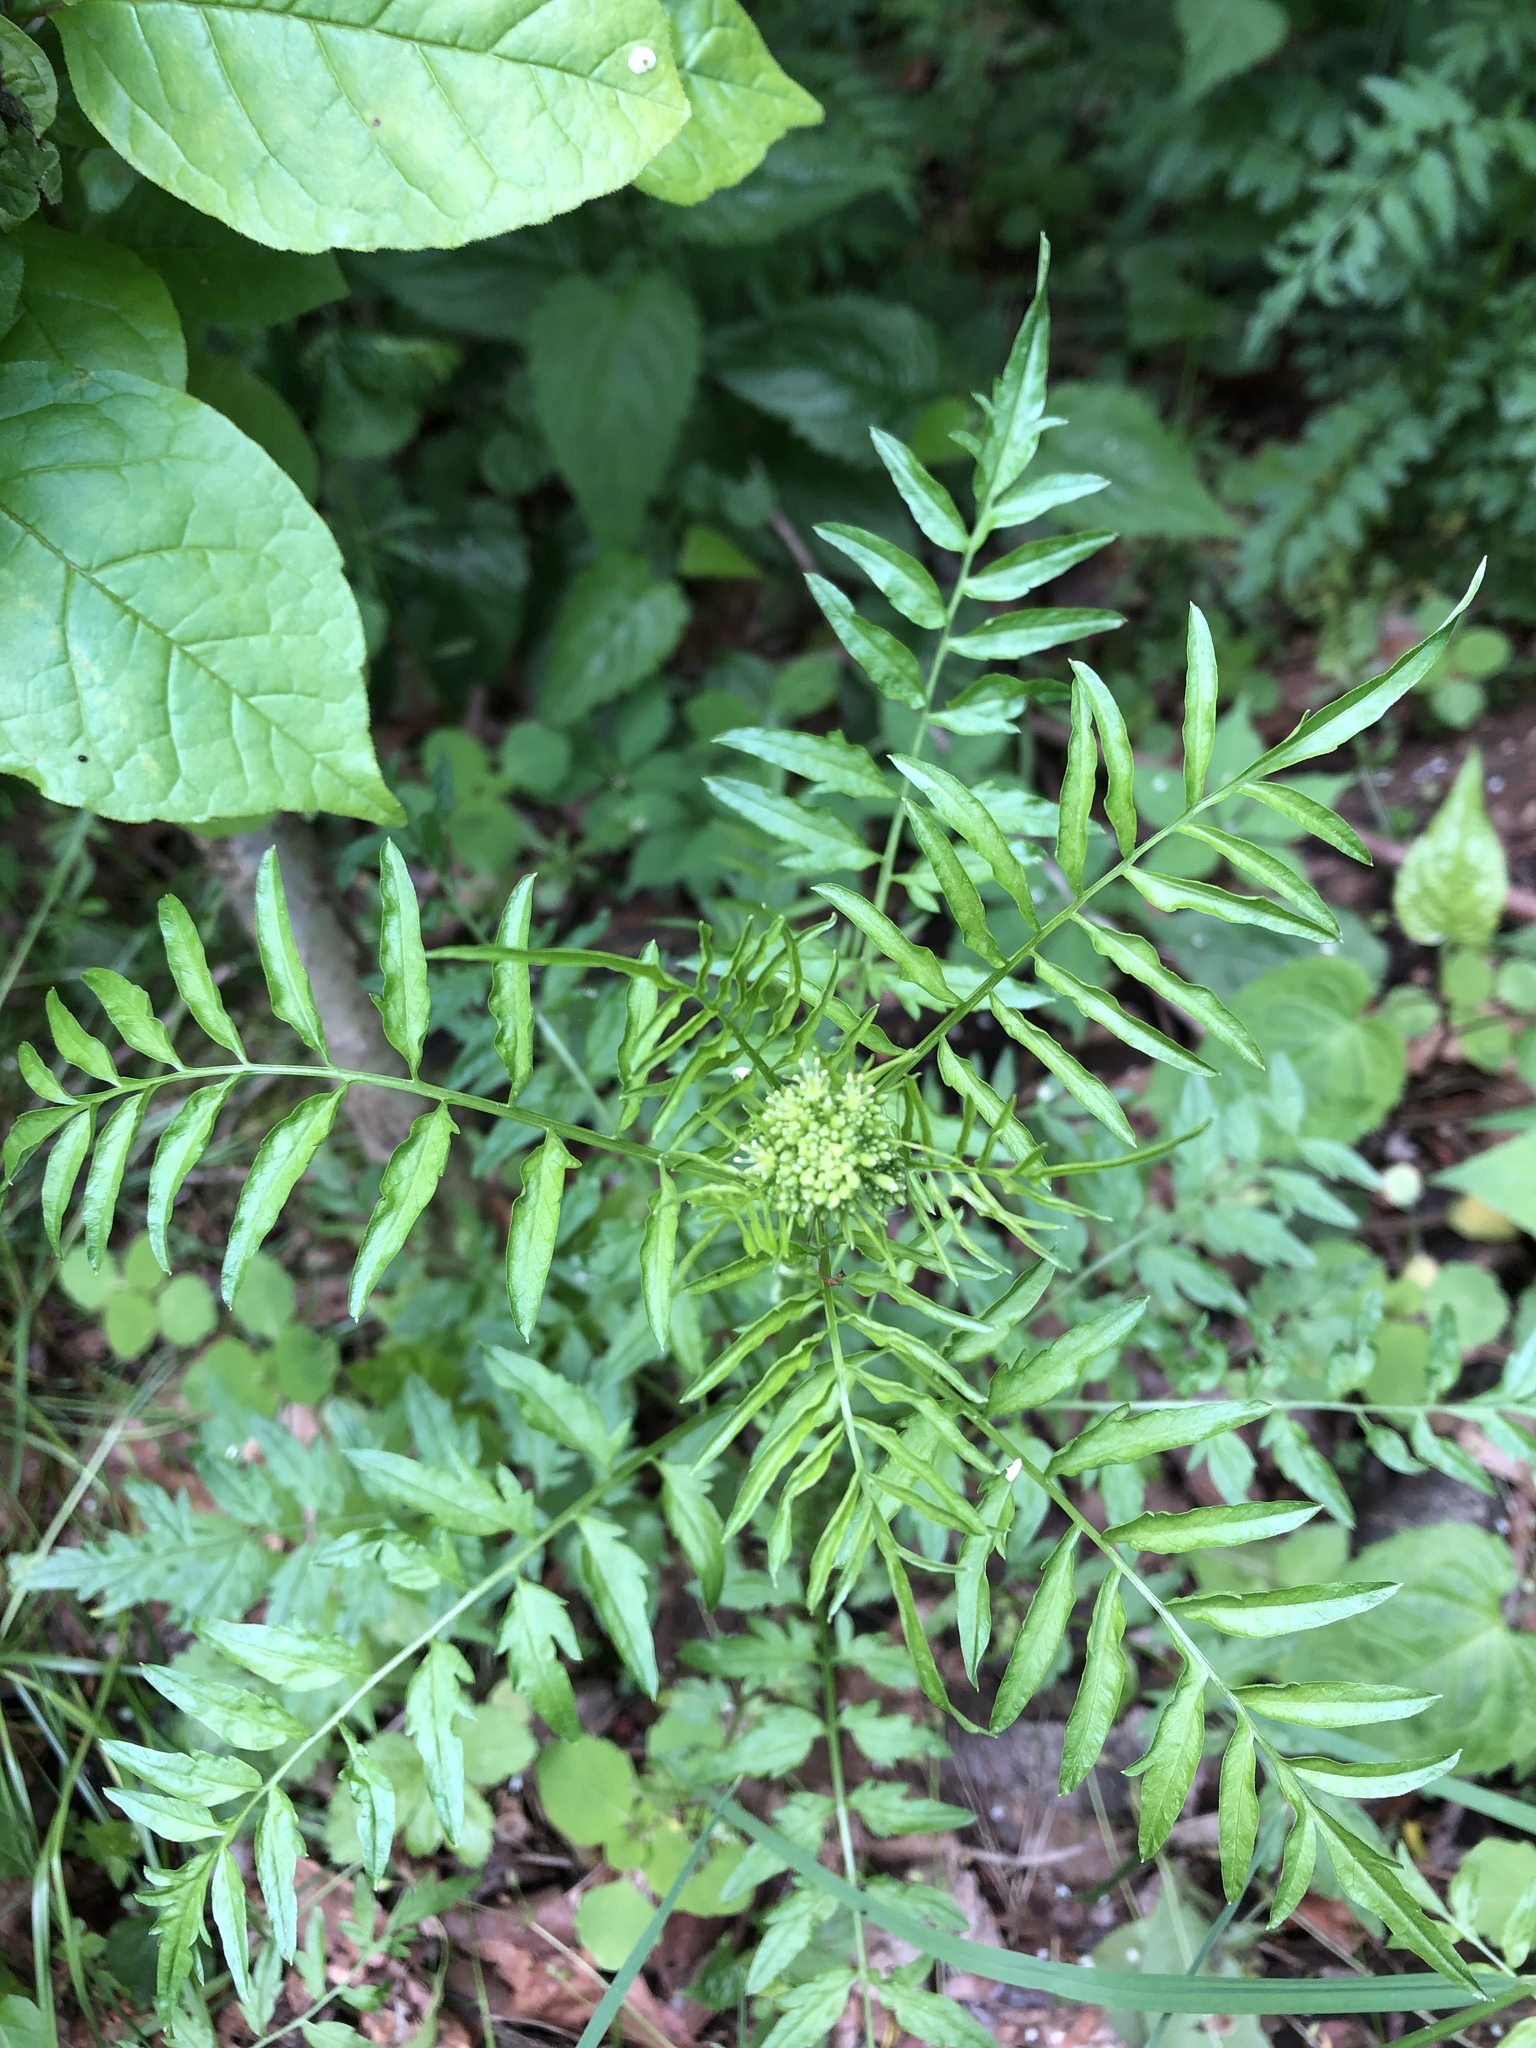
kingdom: Plantae
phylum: Tracheophyta
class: Magnoliopsida
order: Brassicales
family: Brassicaceae
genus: Cardamine
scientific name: Cardamine impatiens
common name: Narrow-leaved bitter-cress
